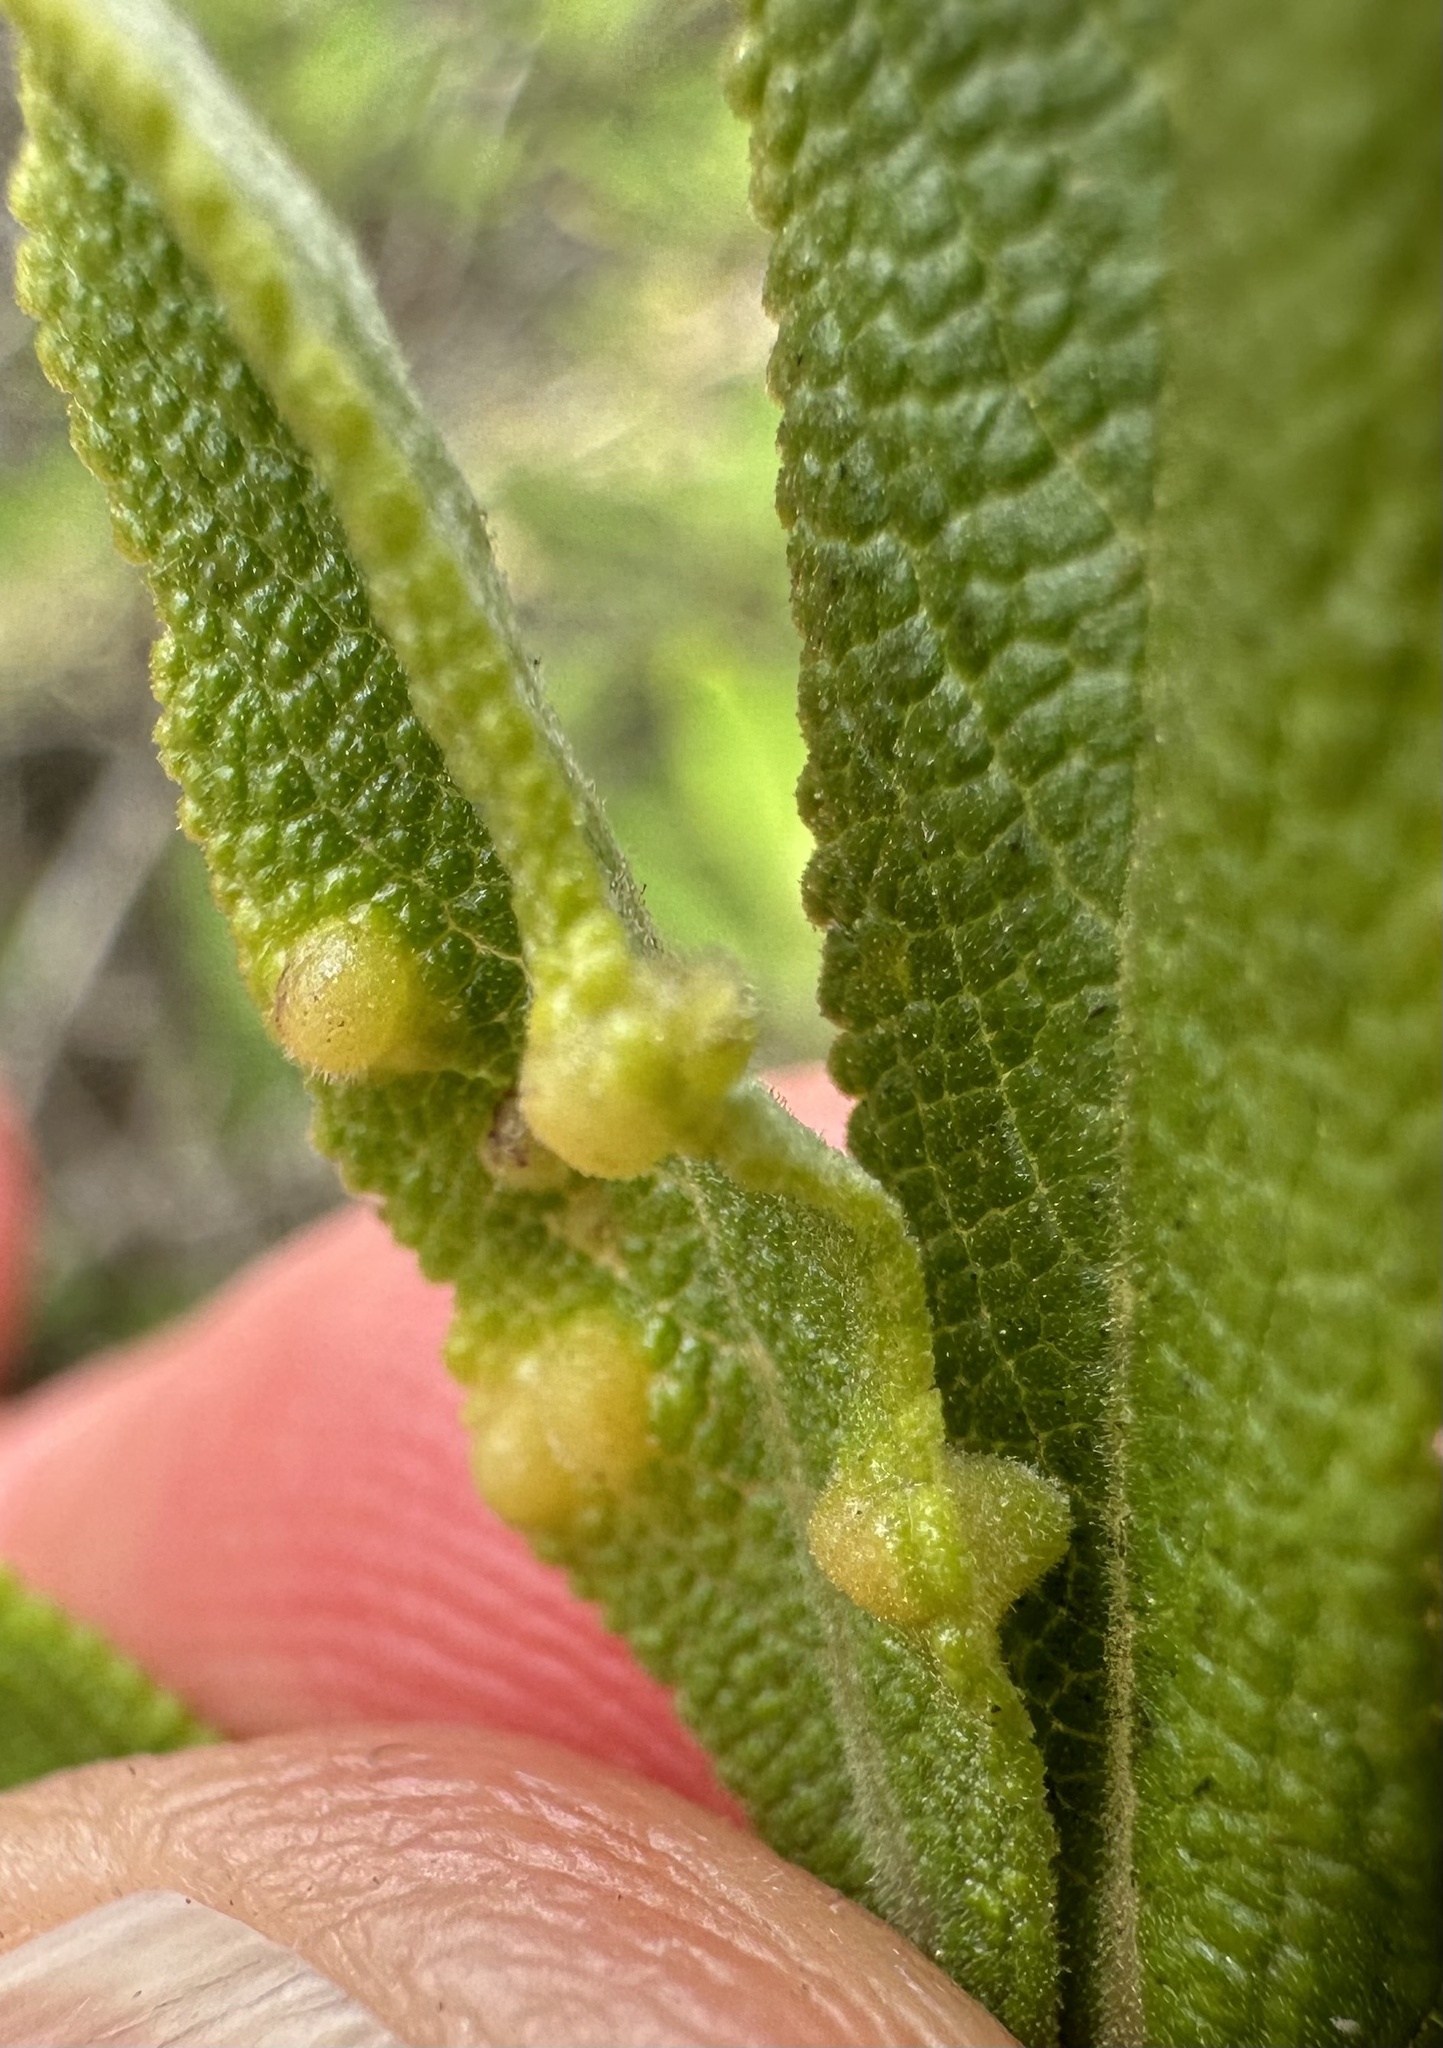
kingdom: Animalia
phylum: Arthropoda
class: Insecta
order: Diptera
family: Cecidomyiidae
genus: Rhopalomyia
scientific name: Rhopalomyia audibertiae
